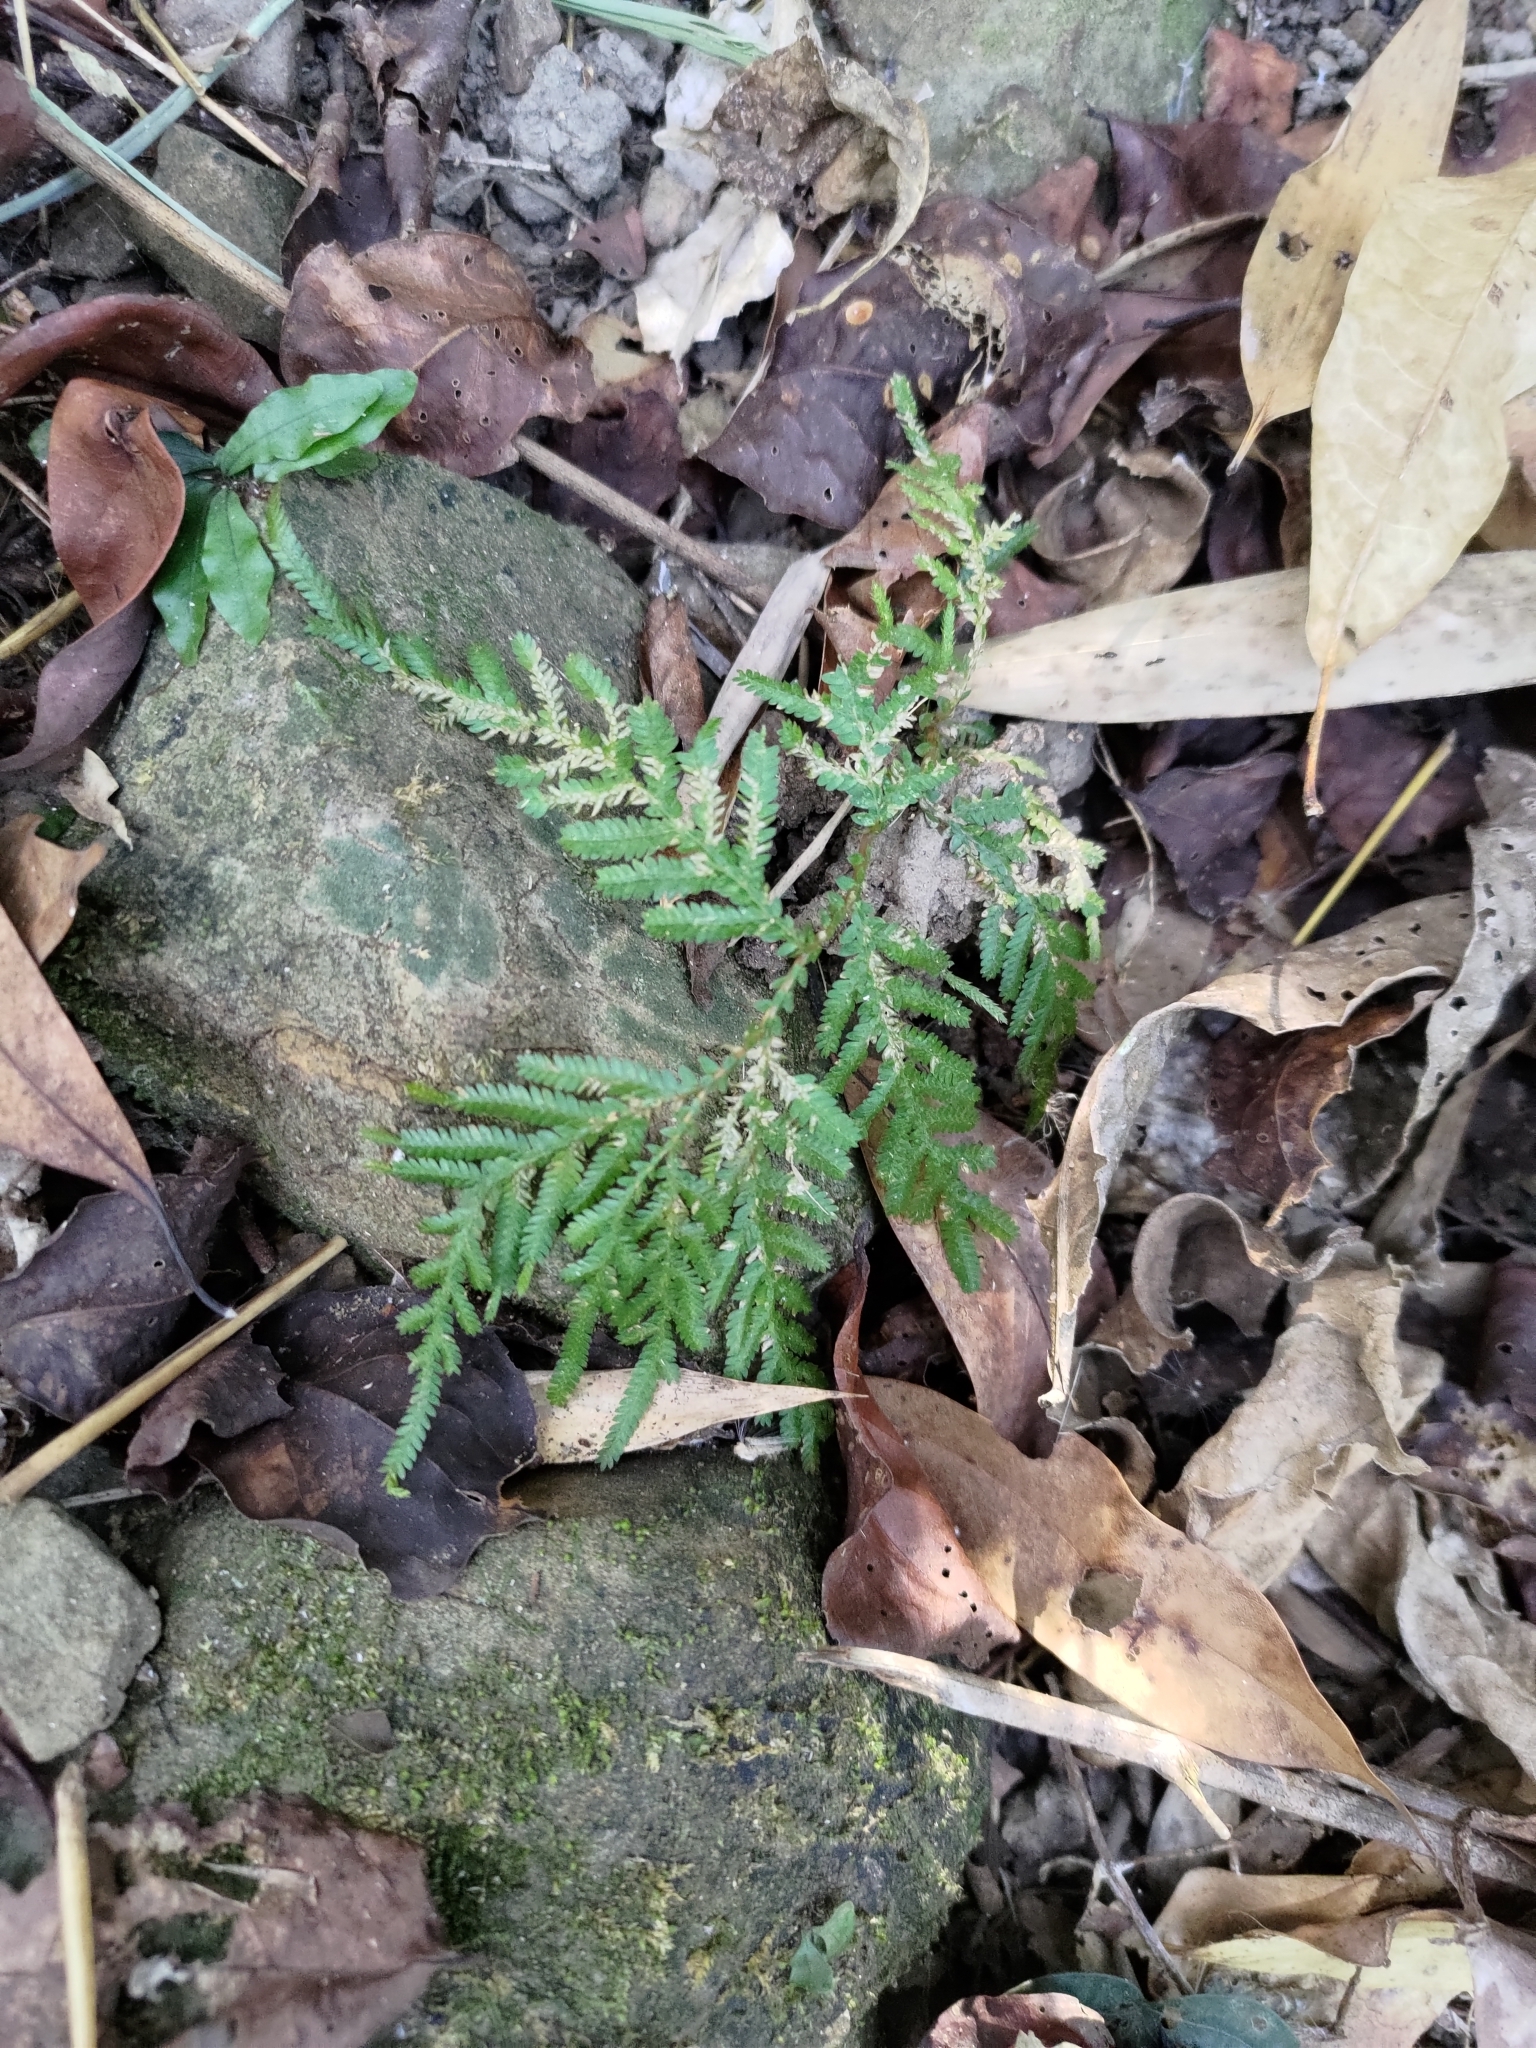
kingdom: Plantae
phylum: Tracheophyta
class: Lycopodiopsida
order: Selaginellales
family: Selaginellaceae
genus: Selaginella
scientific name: Selaginella delicatula
